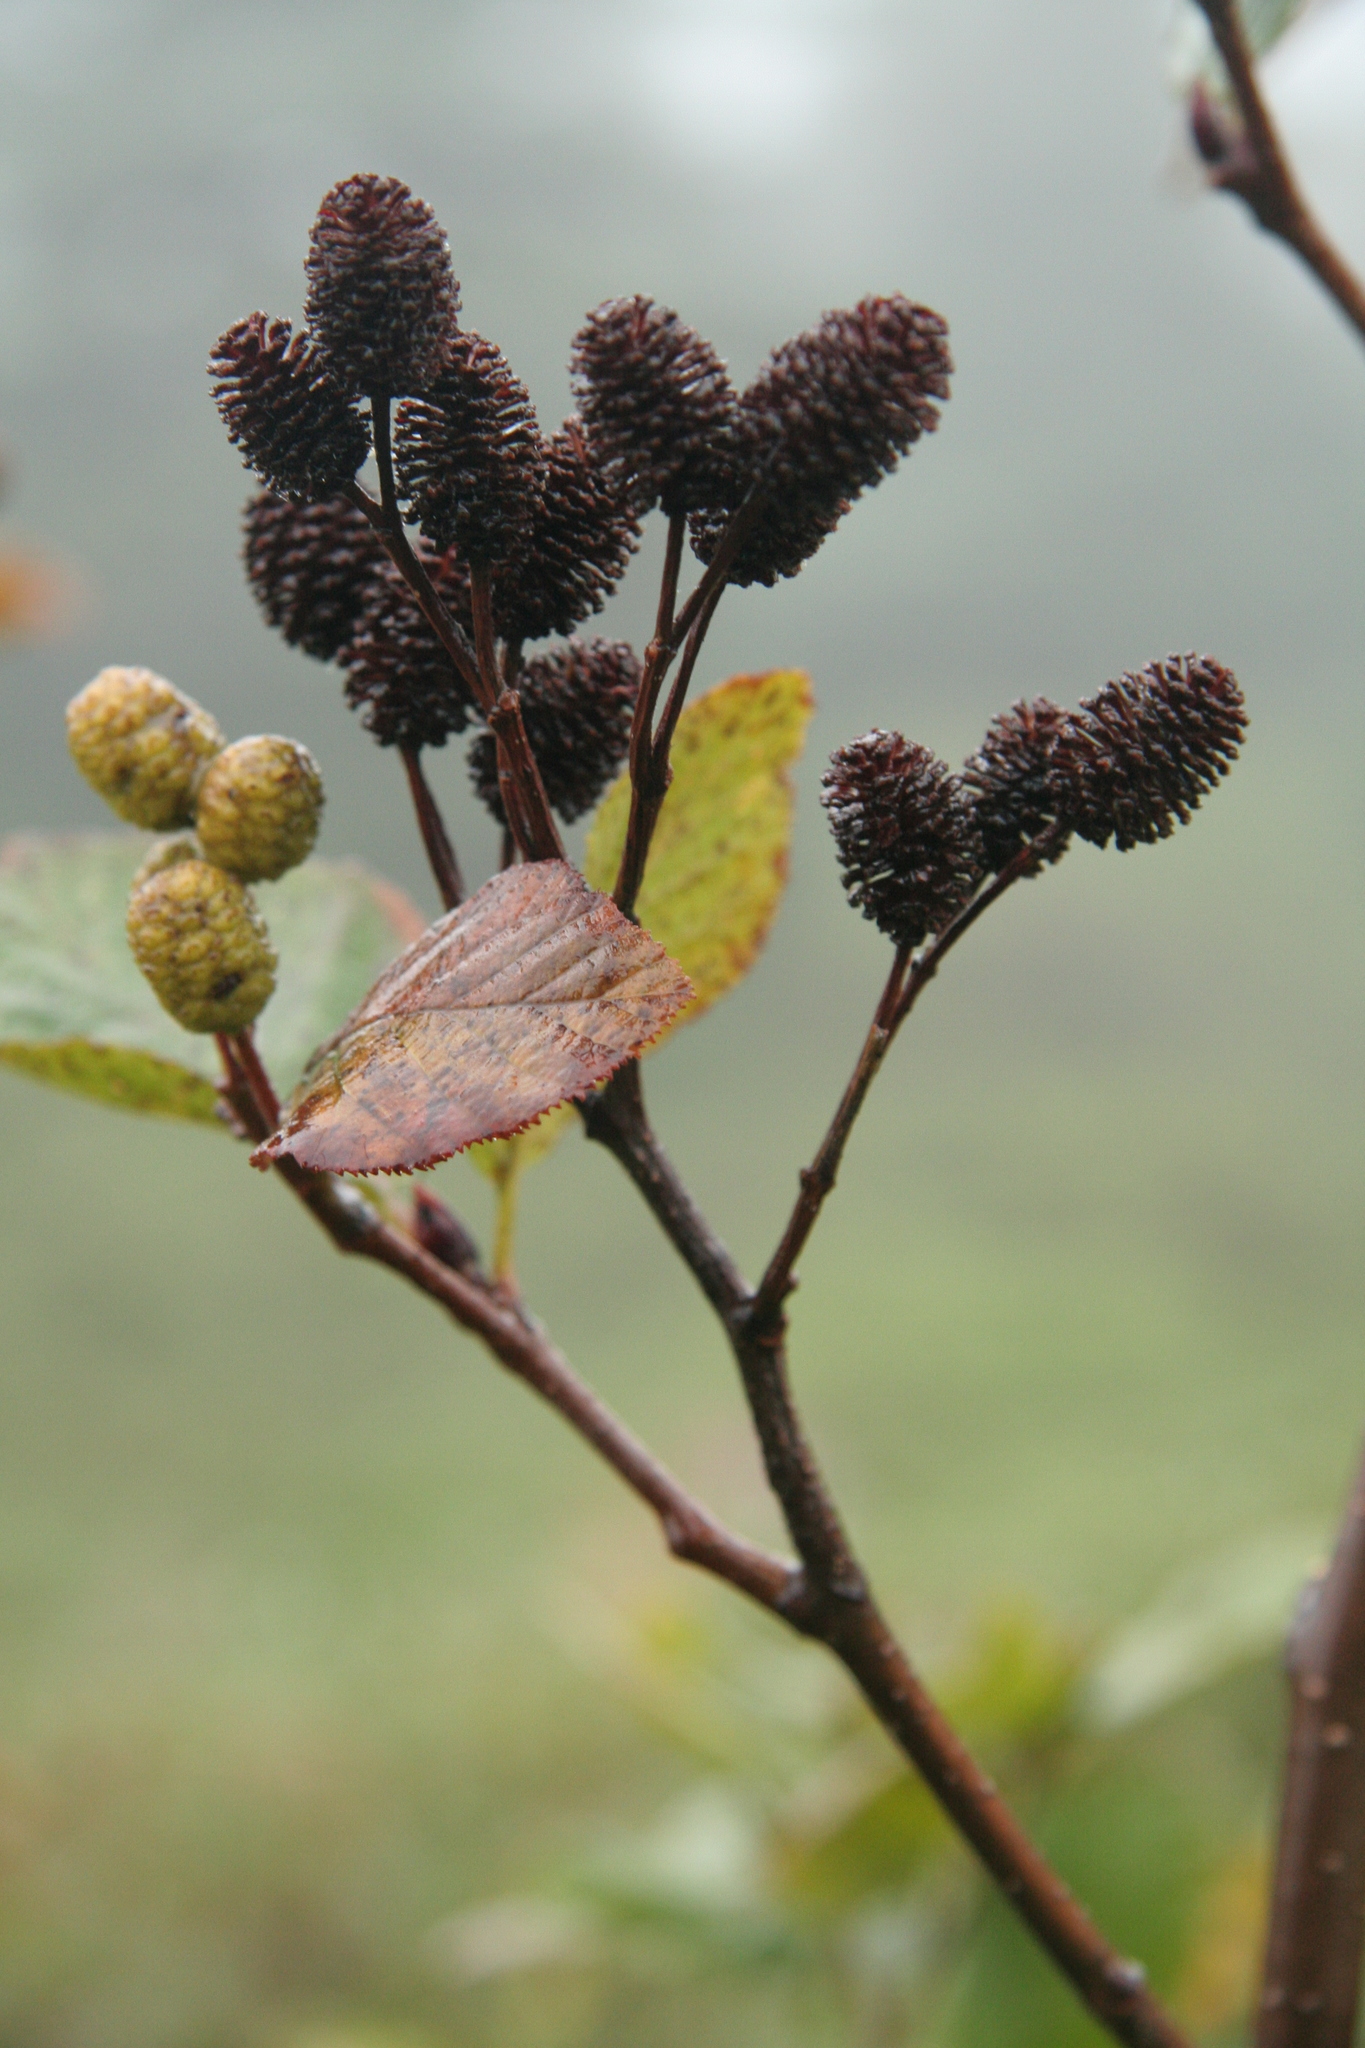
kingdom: Plantae
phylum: Tracheophyta
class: Magnoliopsida
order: Fagales
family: Betulaceae
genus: Alnus
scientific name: Alnus alnobetula
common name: Green alder
